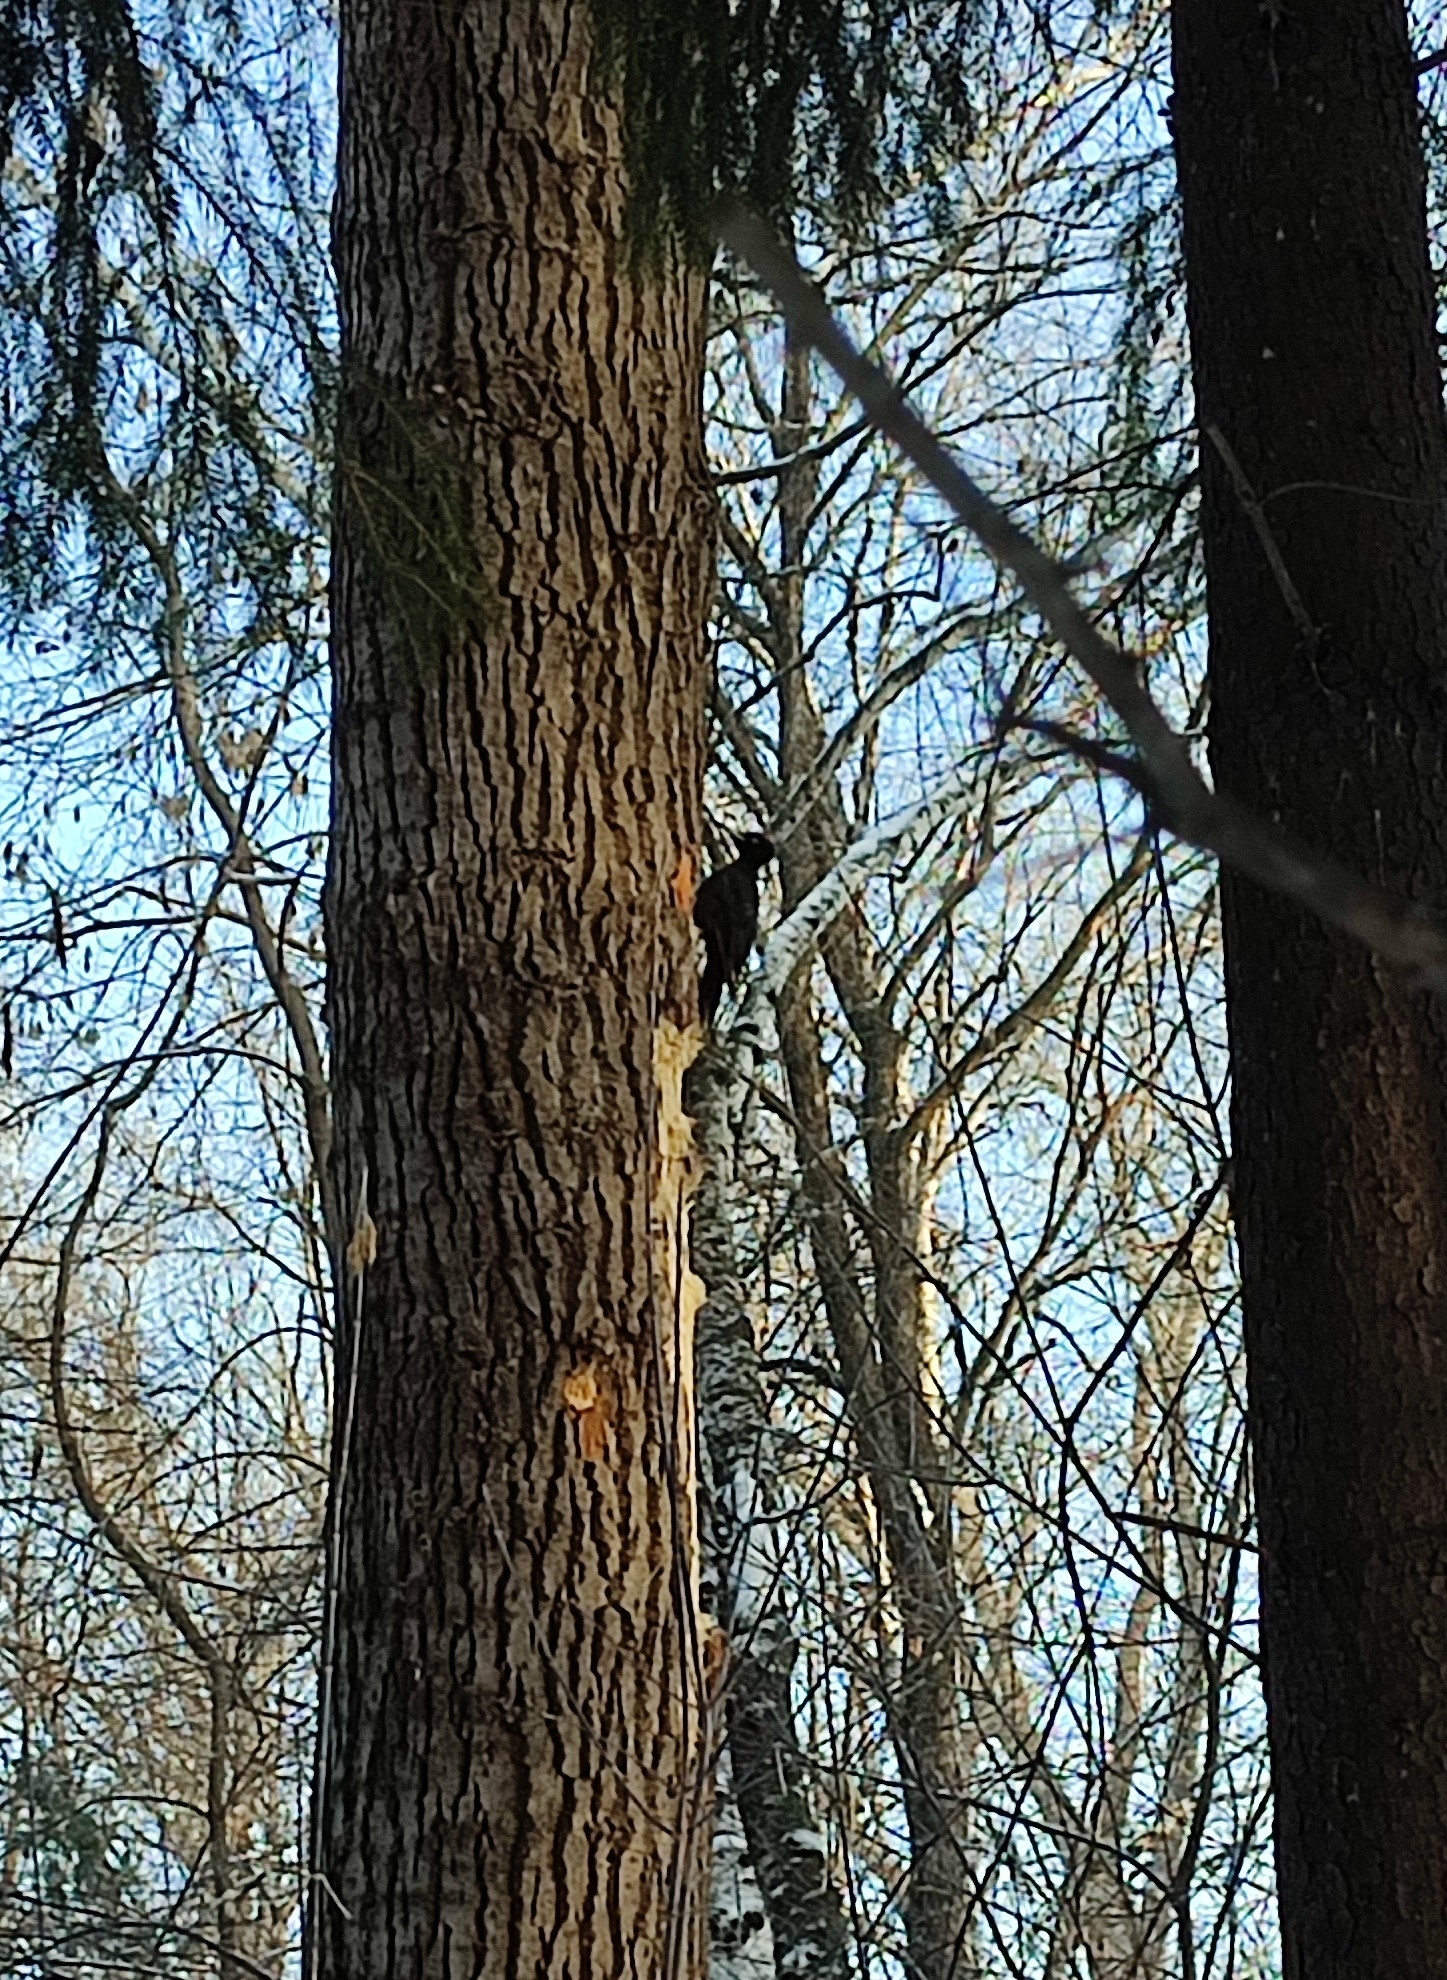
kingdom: Animalia
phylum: Chordata
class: Aves
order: Piciformes
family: Picidae
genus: Dryocopus
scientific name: Dryocopus martius
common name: Black woodpecker
